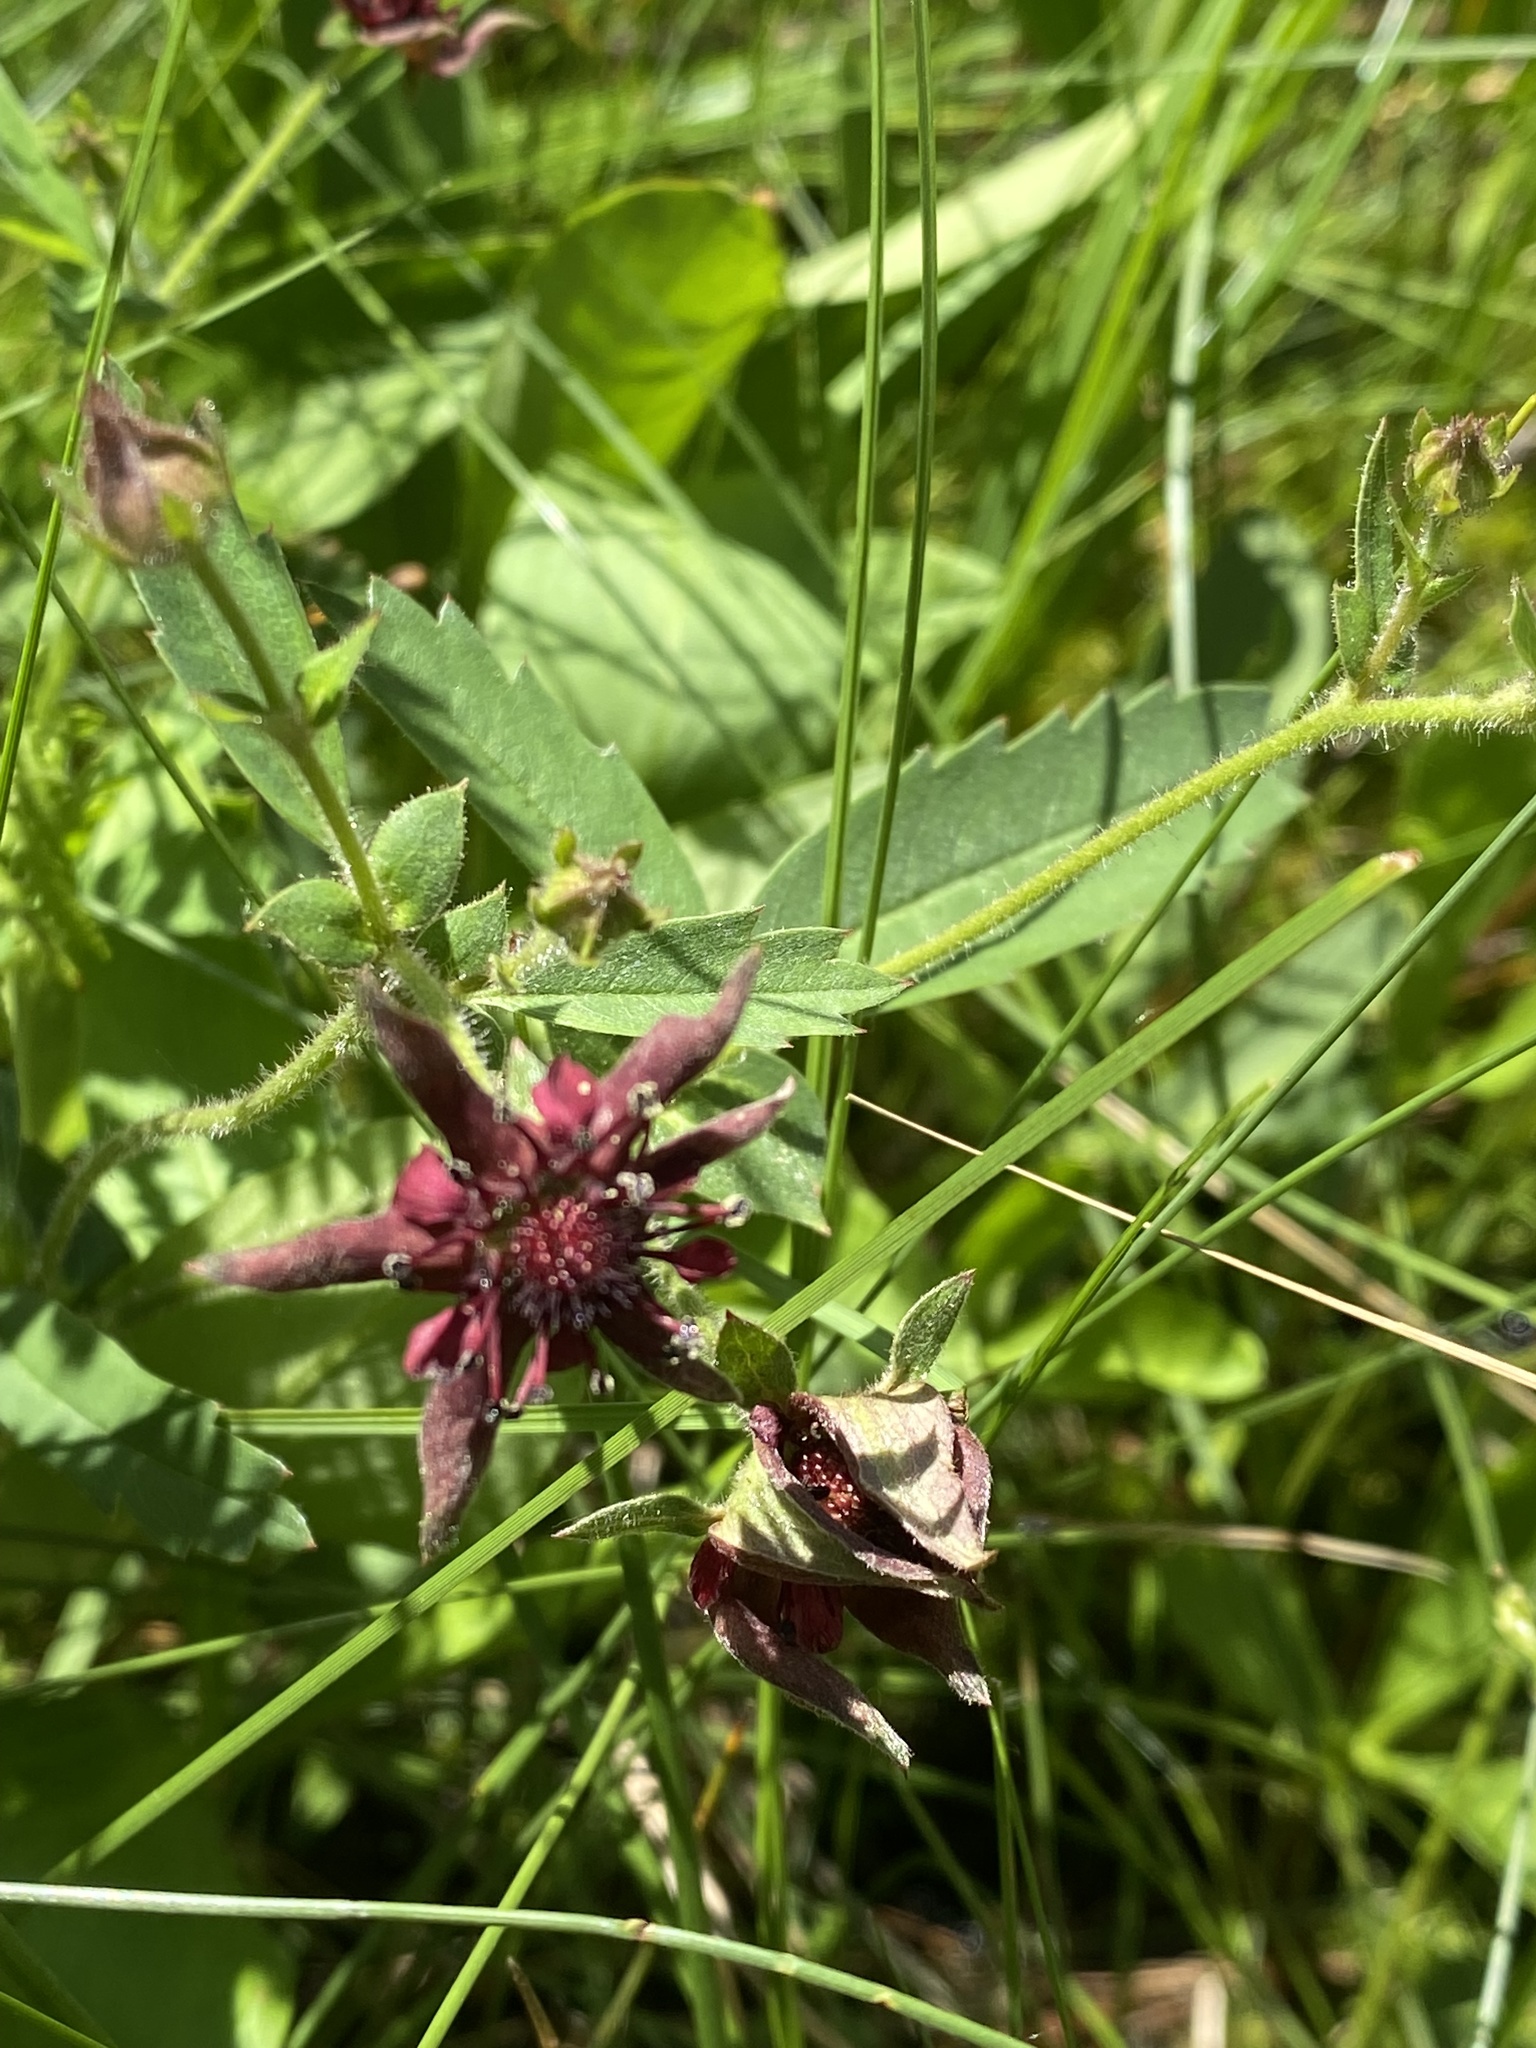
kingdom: Plantae
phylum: Tracheophyta
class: Magnoliopsida
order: Rosales
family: Rosaceae
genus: Comarum
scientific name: Comarum palustre
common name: Marsh cinquefoil
